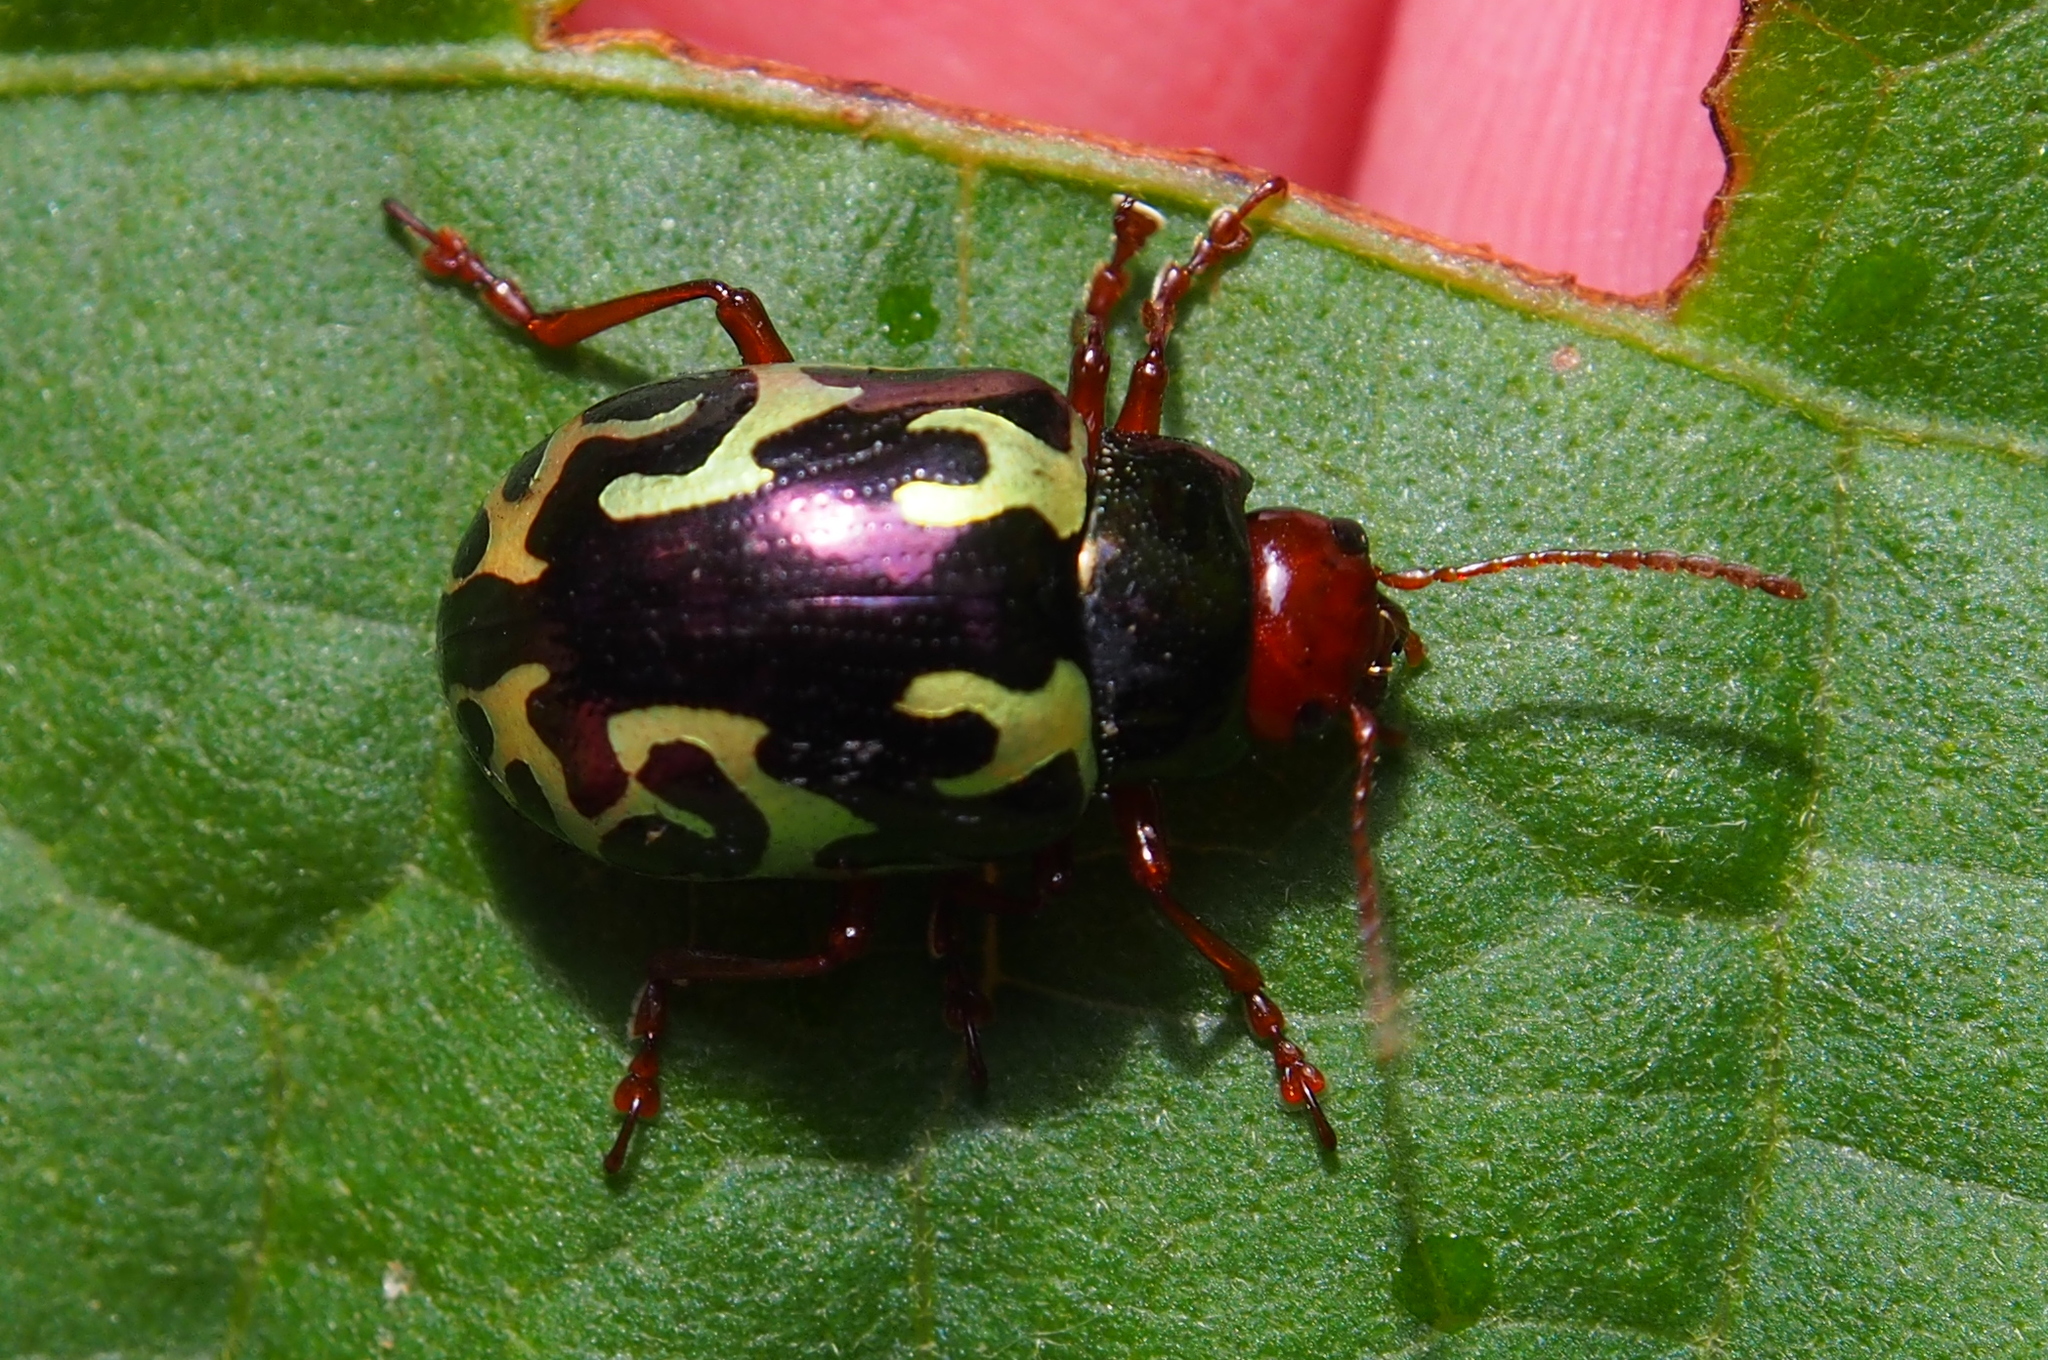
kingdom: Animalia
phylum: Arthropoda
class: Insecta
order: Coleoptera
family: Chrysomelidae
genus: Calligrapha
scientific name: Calligrapha
